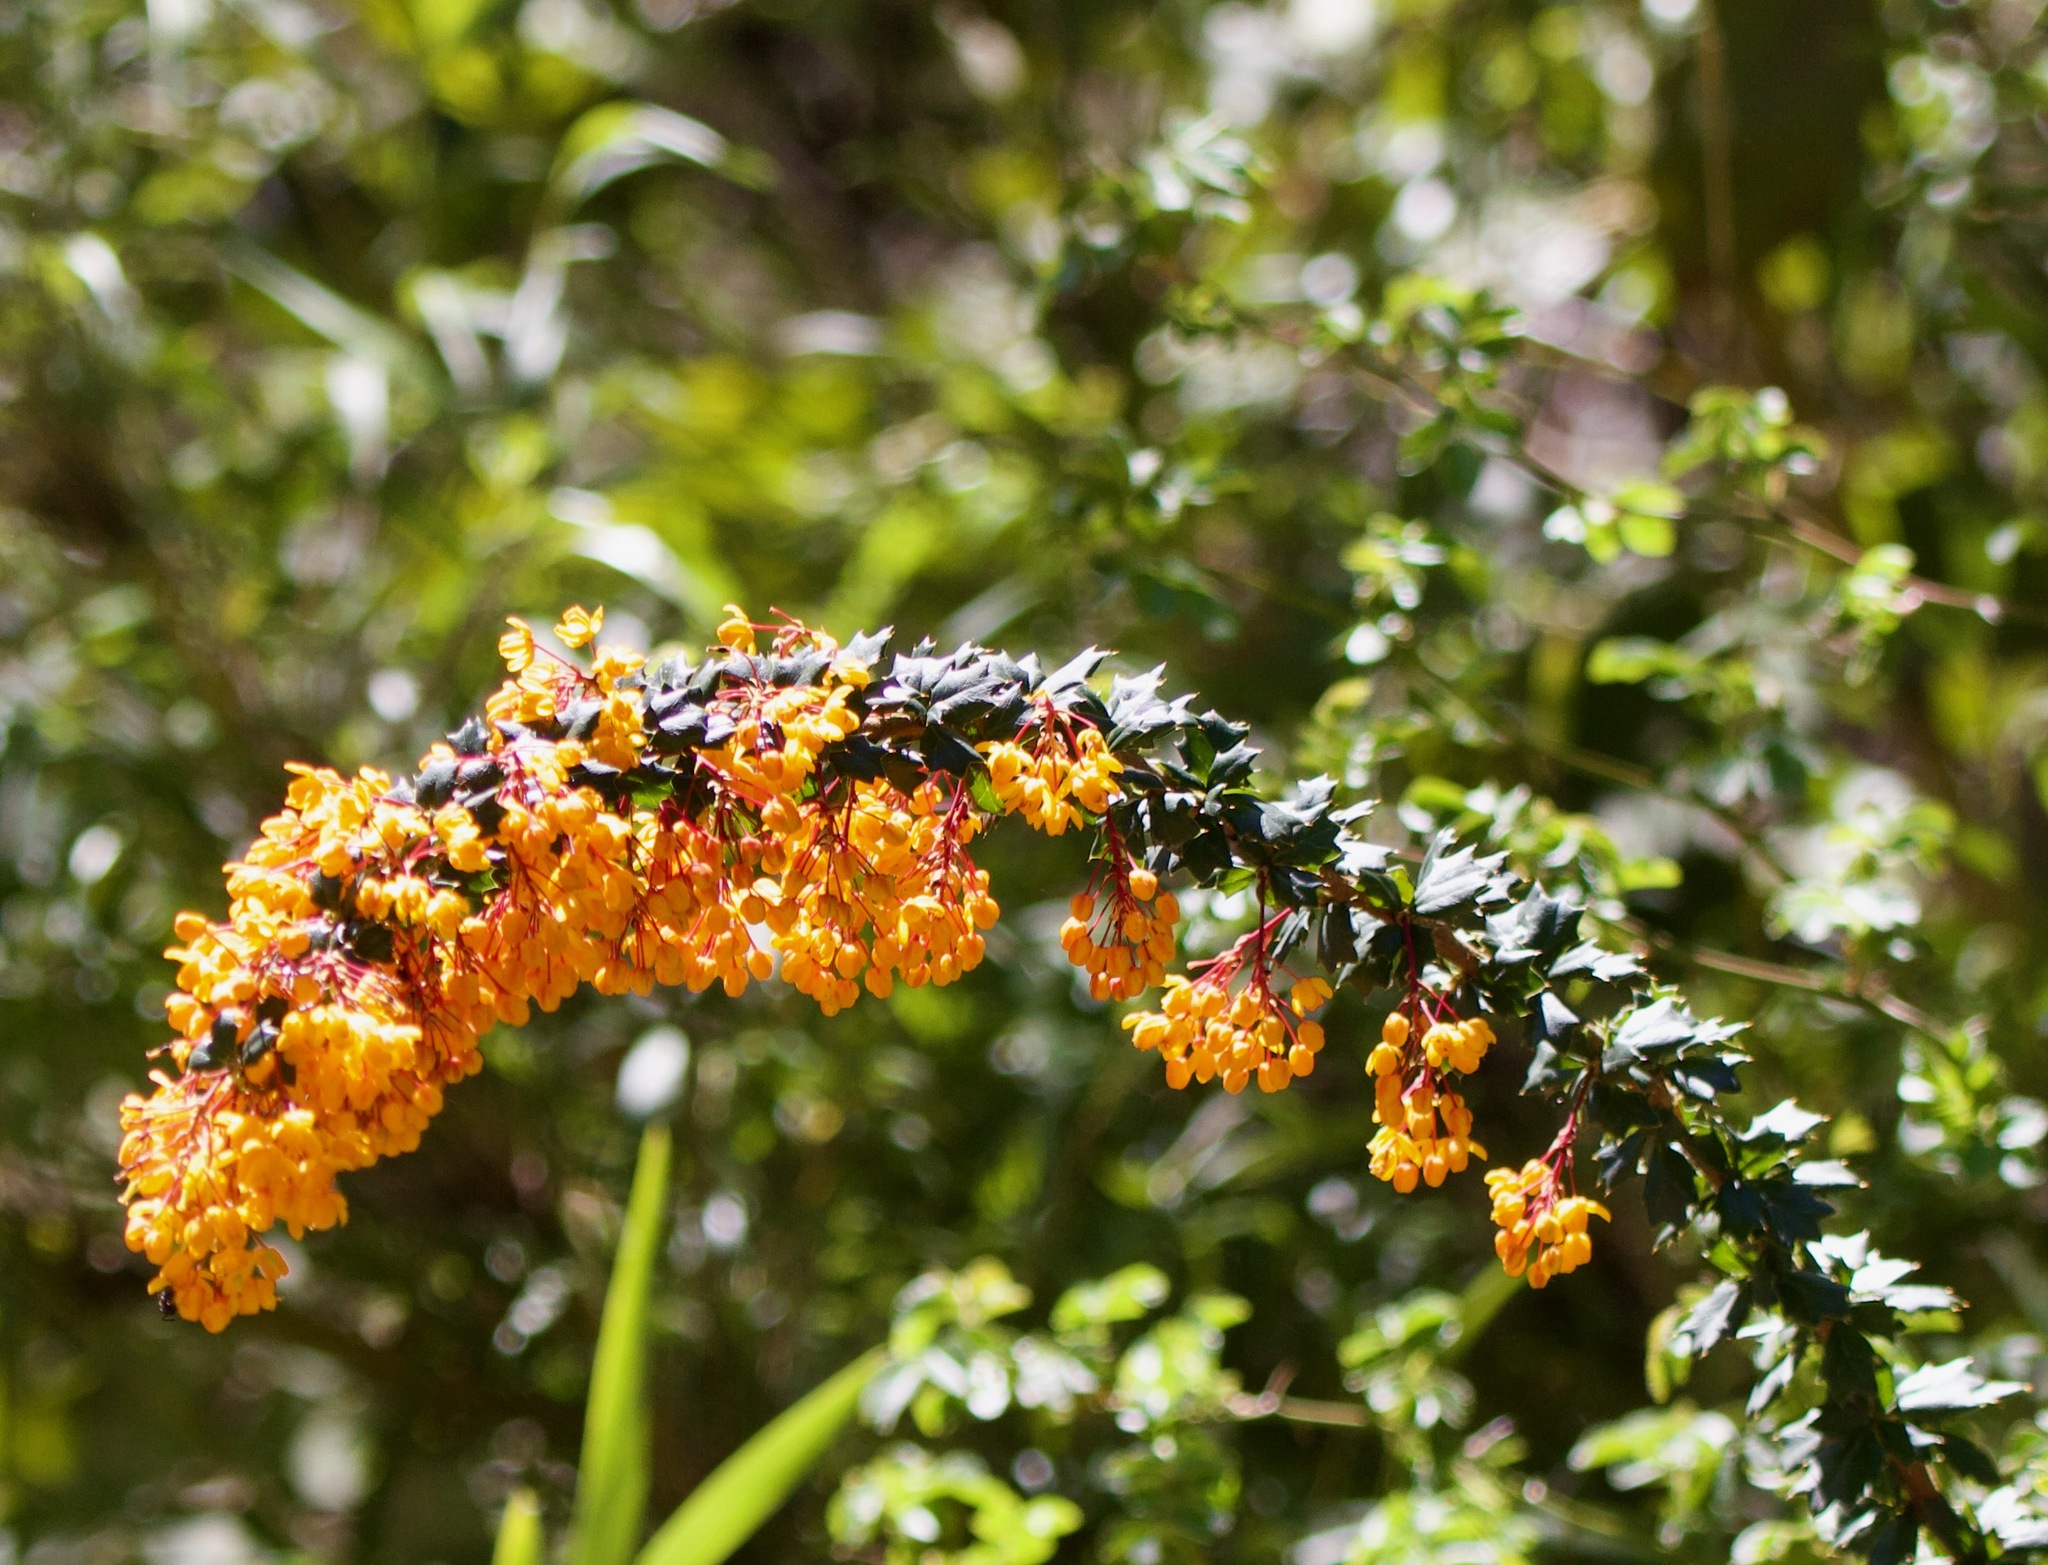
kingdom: Plantae
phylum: Tracheophyta
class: Magnoliopsida
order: Ranunculales
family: Berberidaceae
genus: Berberis
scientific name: Berberis darwinii
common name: Darwin's barberry
